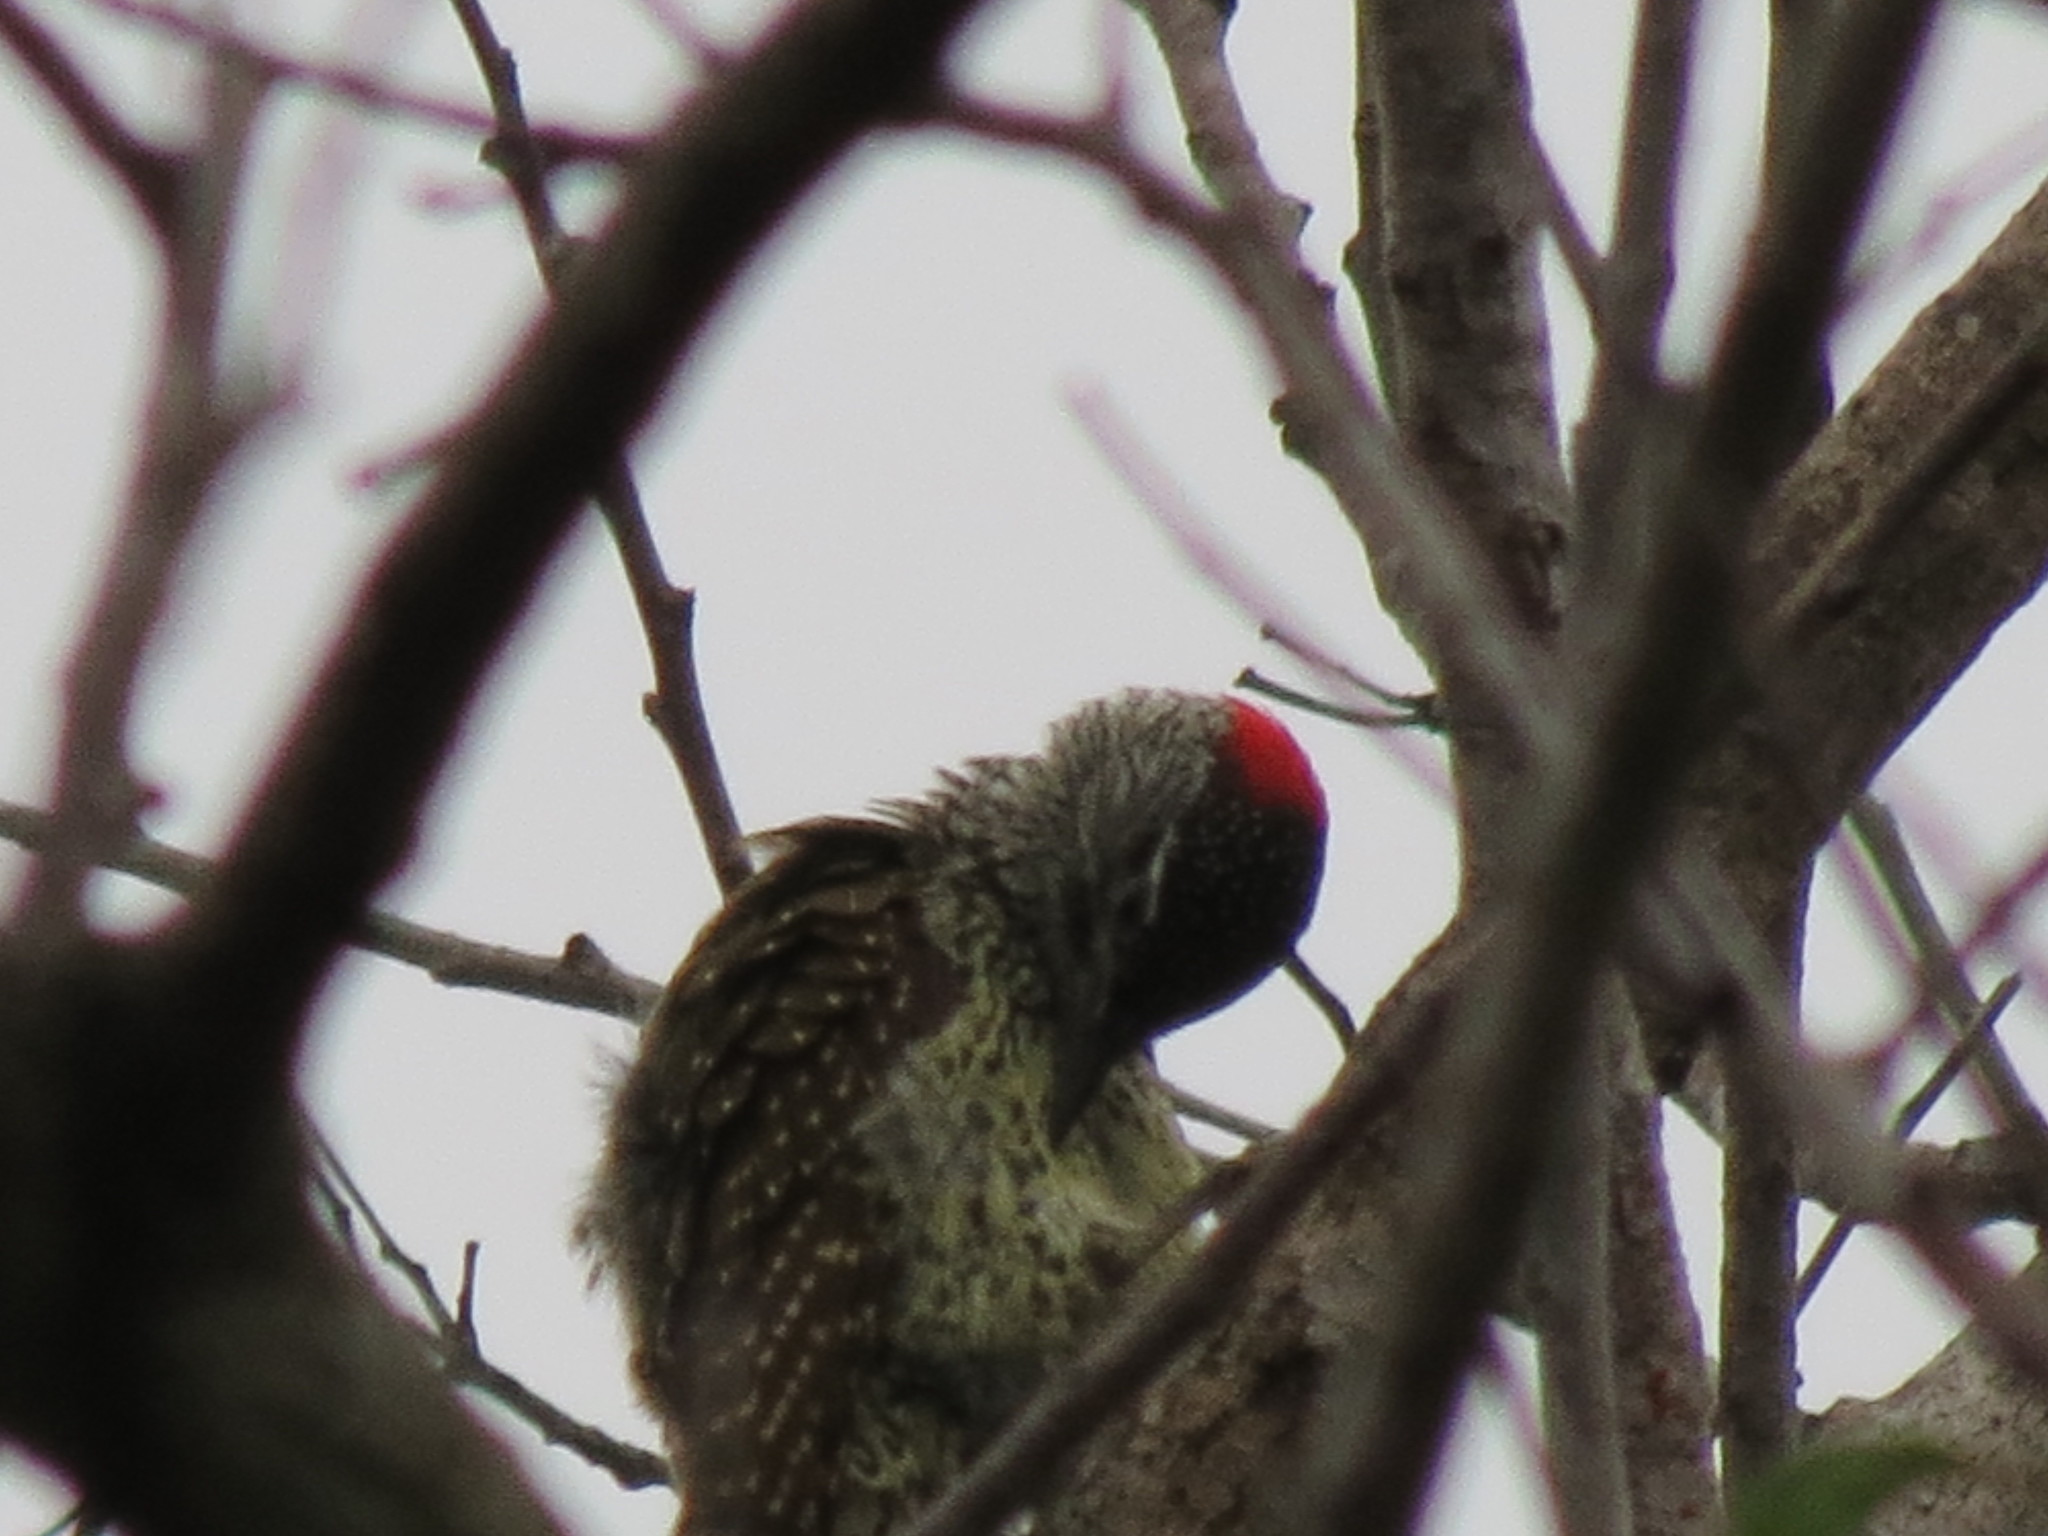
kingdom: Animalia
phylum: Chordata
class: Aves
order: Piciformes
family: Picidae
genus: Campethera
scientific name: Campethera abingoni
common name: Golden-tailed woodpecker
